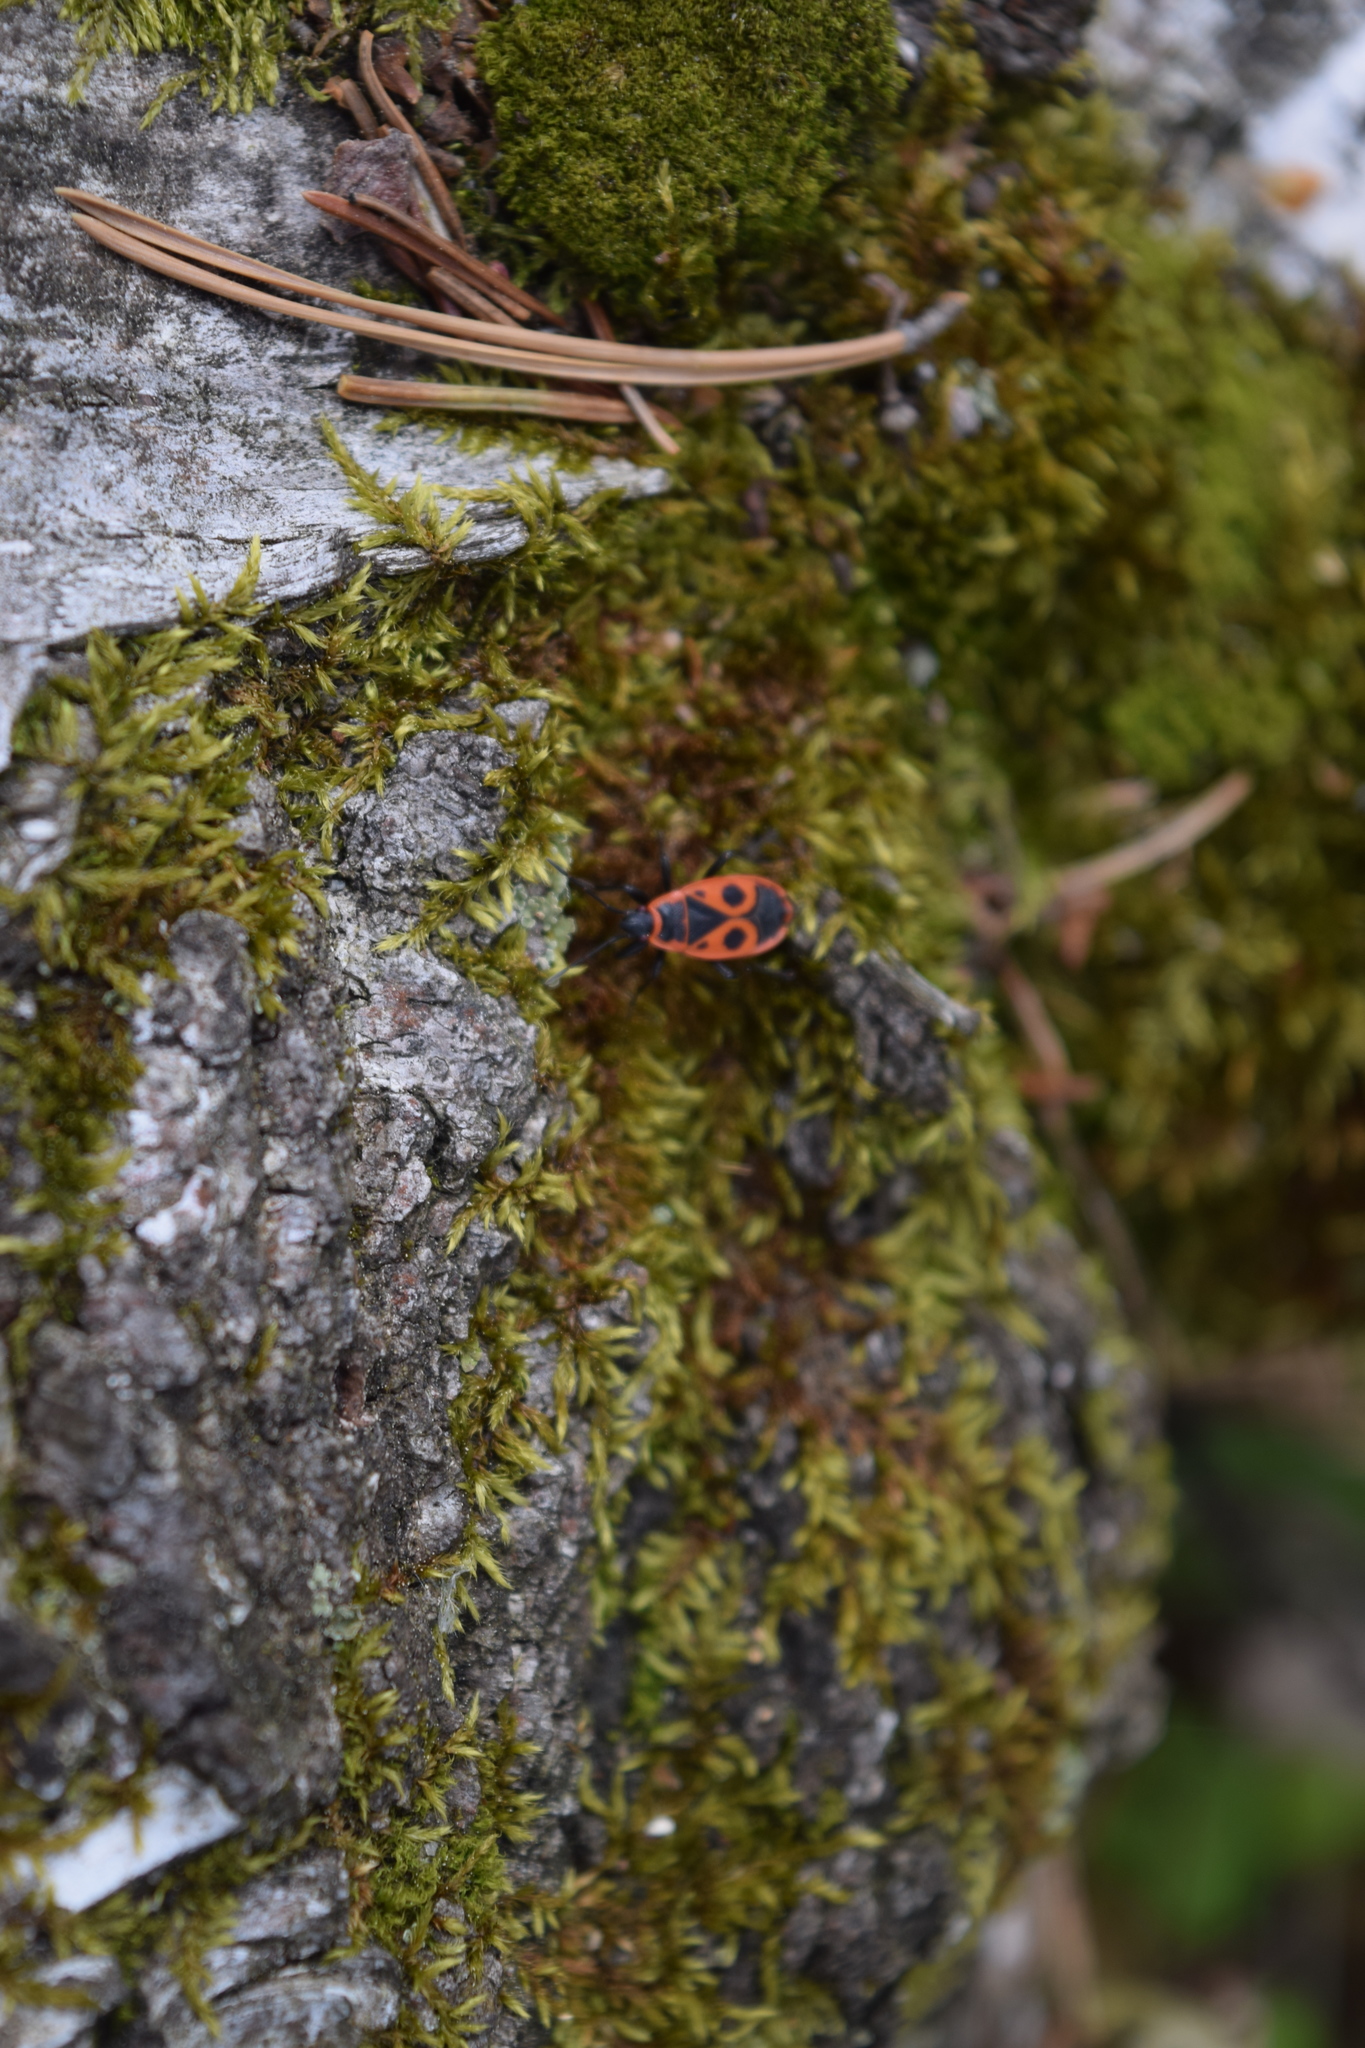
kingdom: Animalia
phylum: Arthropoda
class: Insecta
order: Hemiptera
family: Pyrrhocoridae
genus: Pyrrhocoris
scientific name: Pyrrhocoris apterus
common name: Firebug
